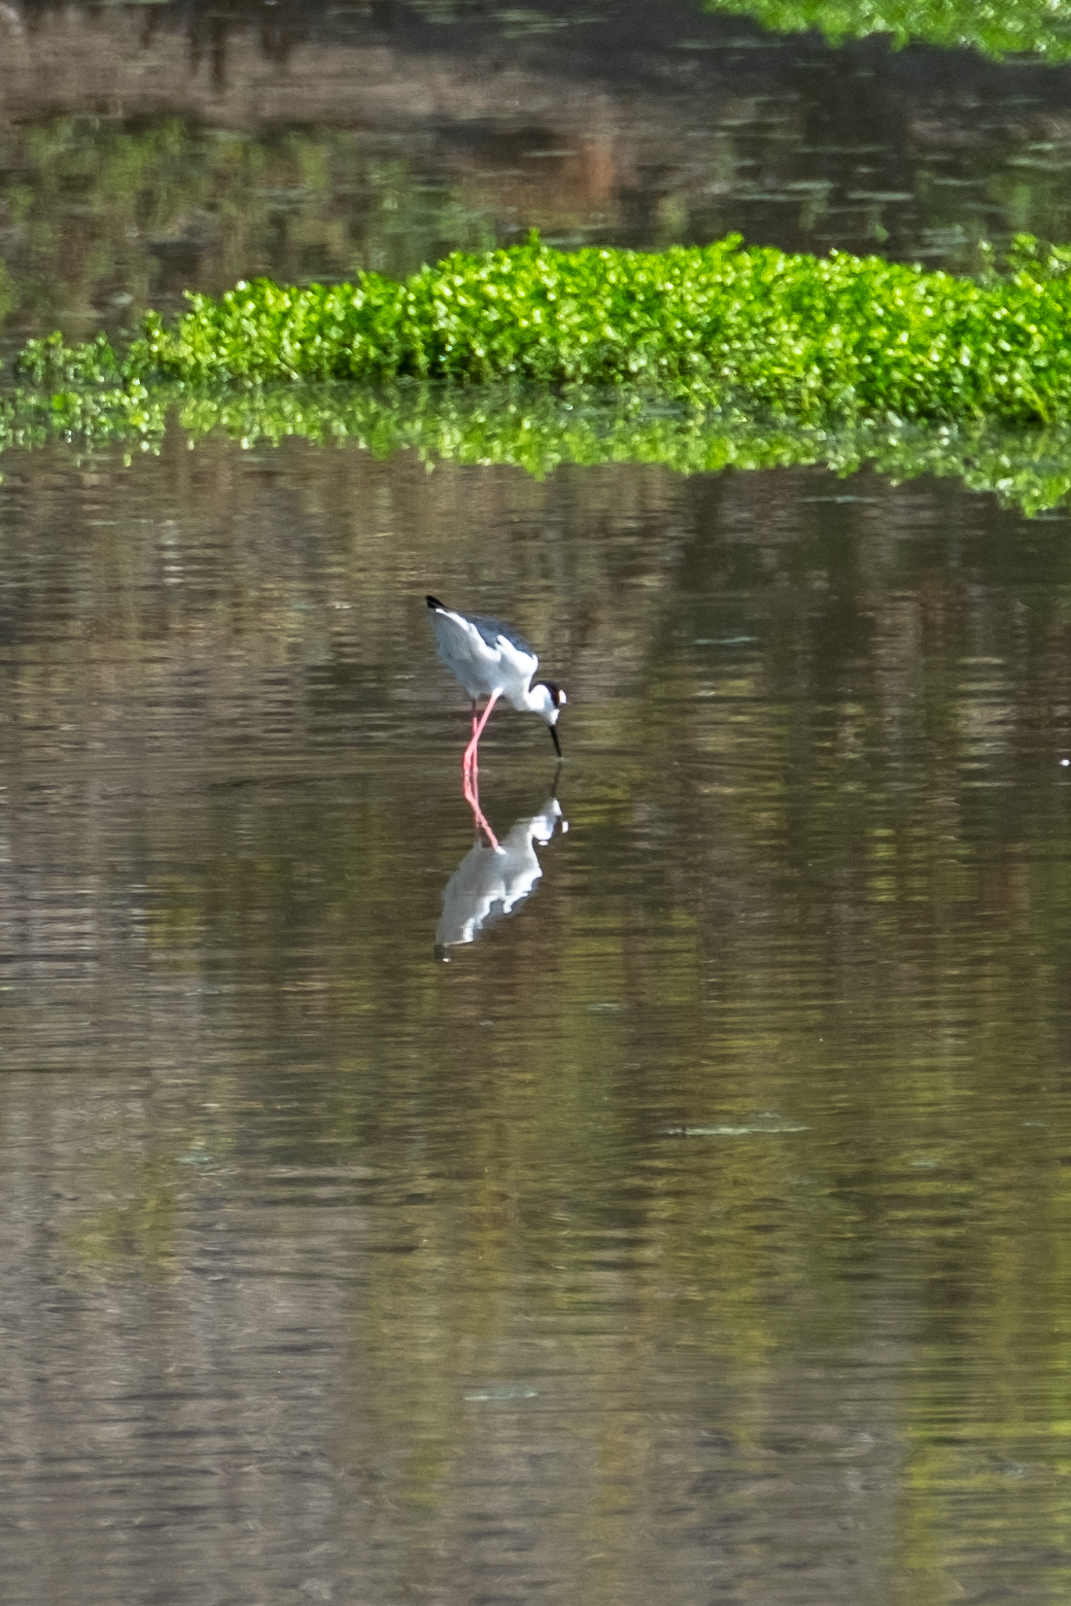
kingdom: Animalia
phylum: Chordata
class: Aves
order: Charadriiformes
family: Recurvirostridae
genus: Himantopus
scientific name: Himantopus mexicanus
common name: Black-necked stilt
